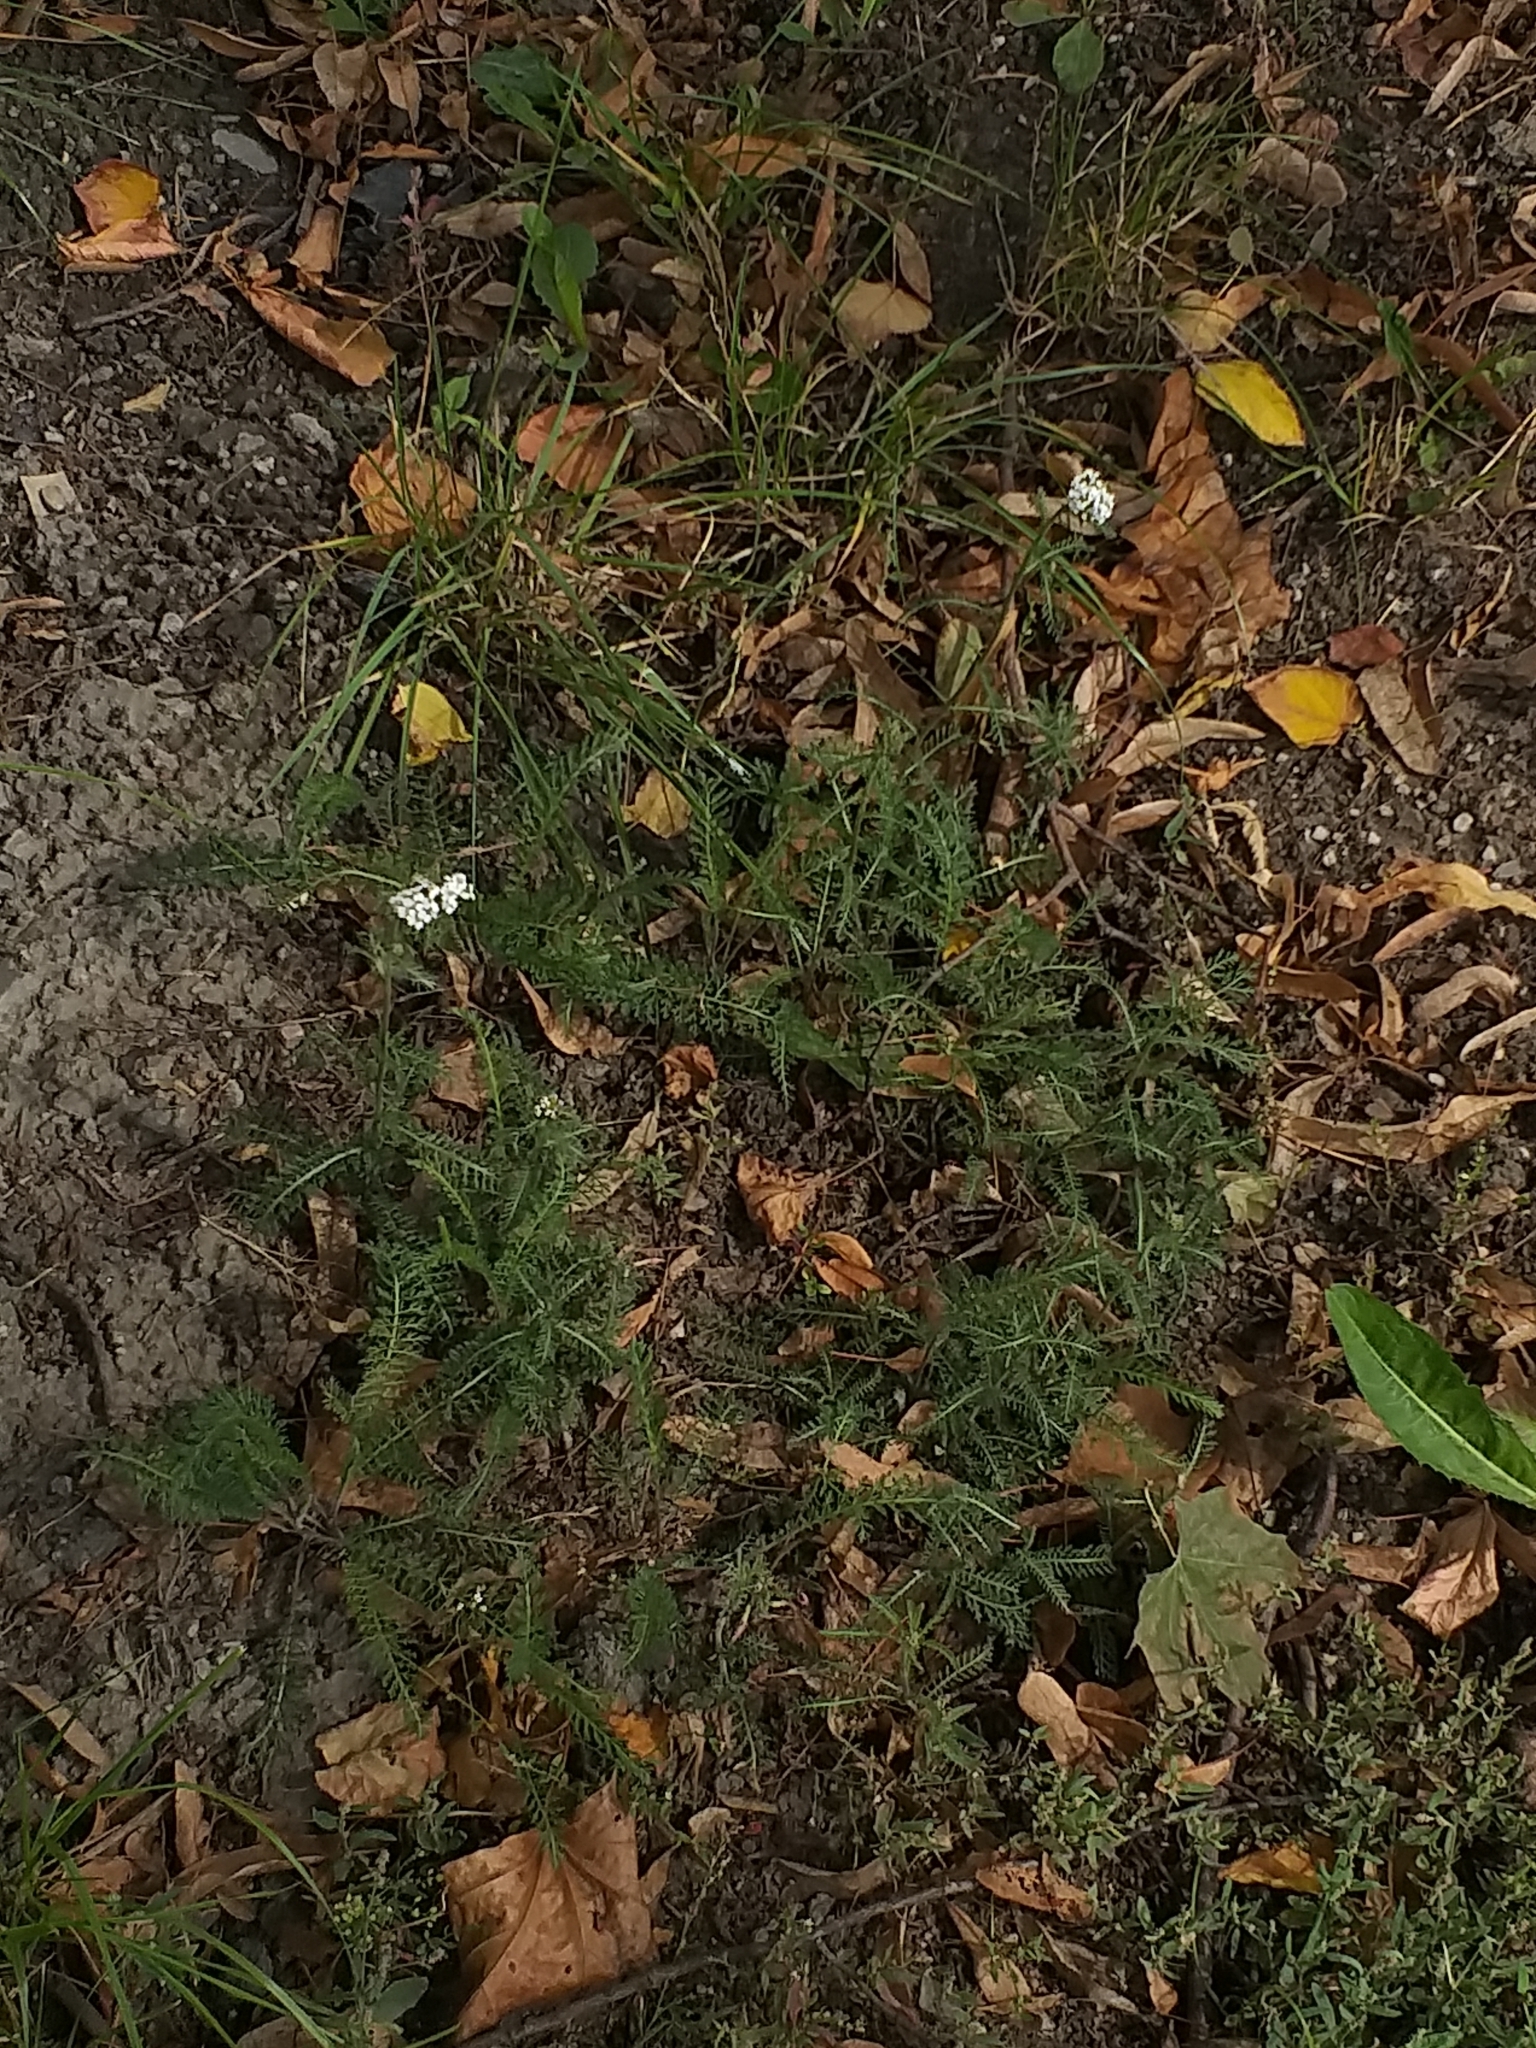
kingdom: Plantae
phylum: Tracheophyta
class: Magnoliopsida
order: Asterales
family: Asteraceae
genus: Achillea
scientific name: Achillea millefolium
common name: Yarrow
